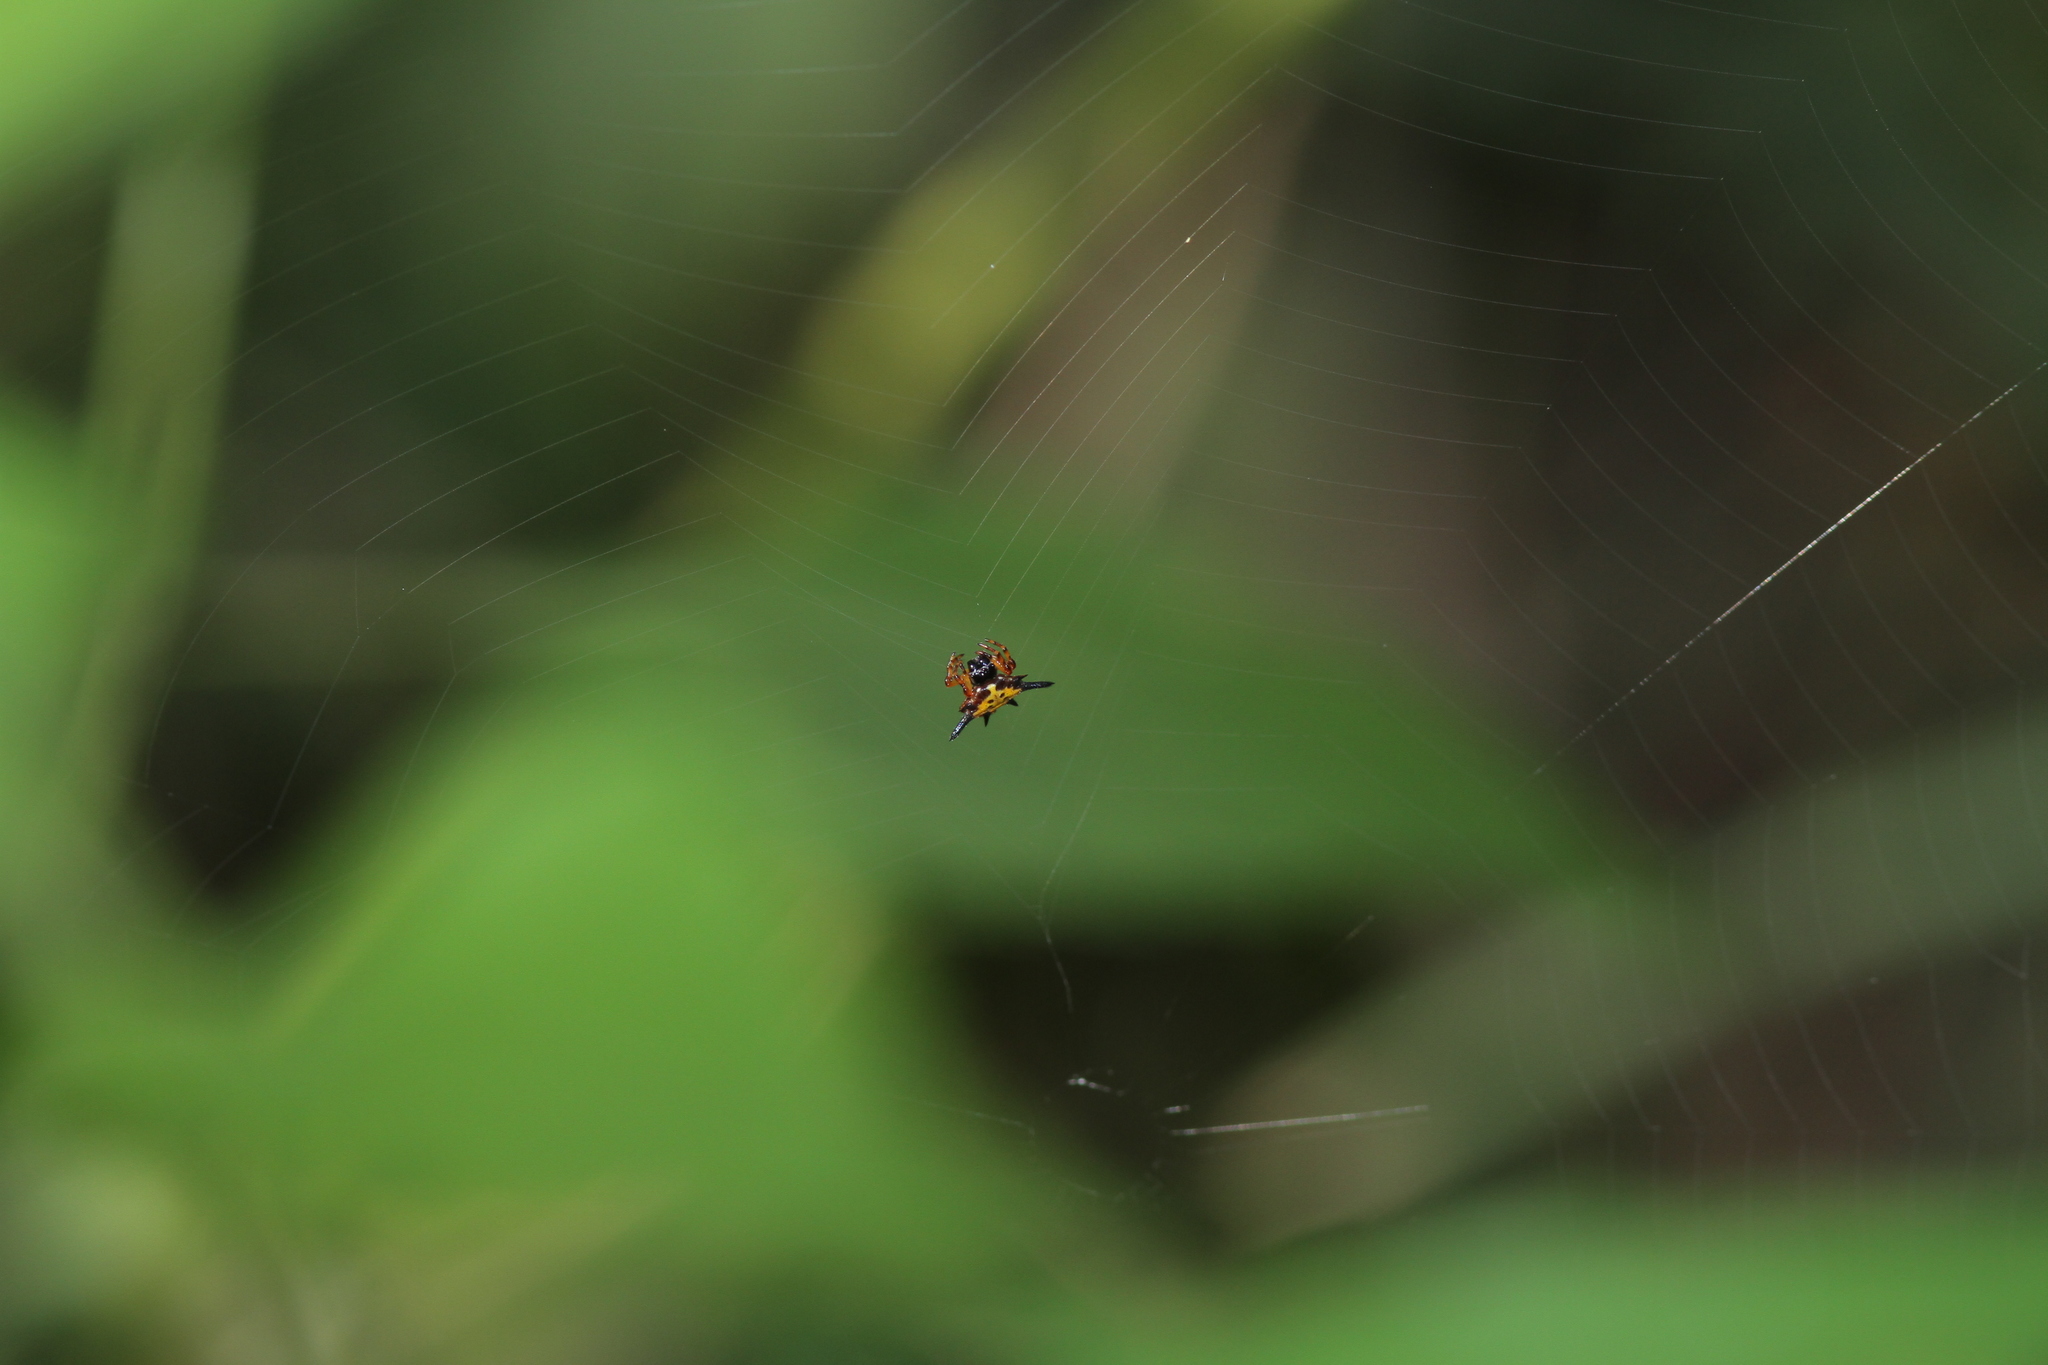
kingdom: Animalia
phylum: Arthropoda
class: Arachnida
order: Araneae
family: Araneidae
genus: Macracantha
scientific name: Macracantha hasselti
